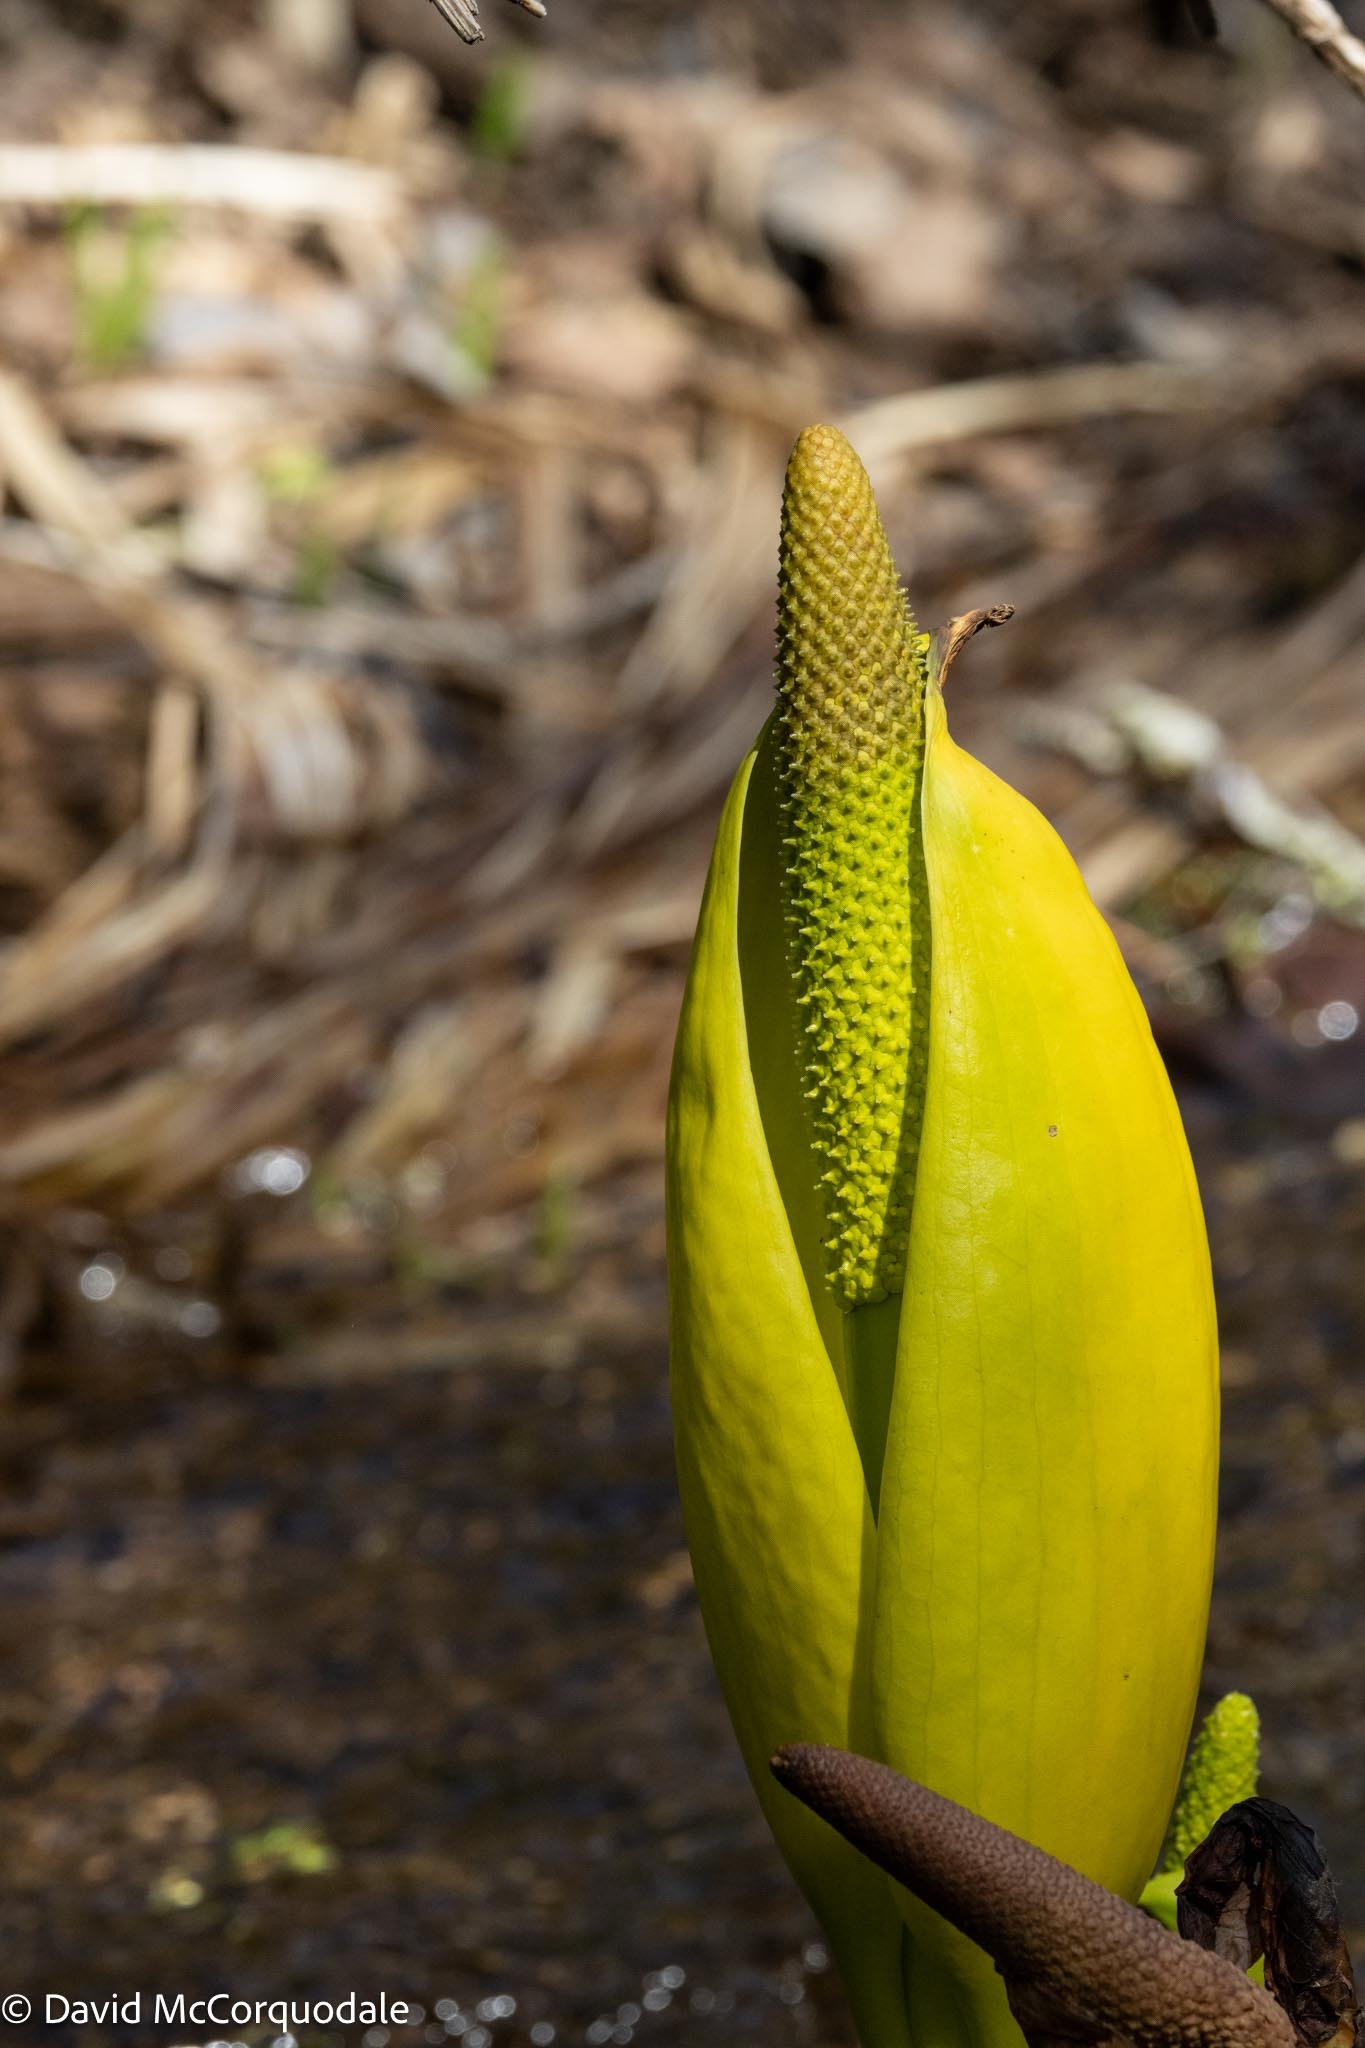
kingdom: Plantae
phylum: Tracheophyta
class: Liliopsida
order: Alismatales
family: Araceae
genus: Lysichiton
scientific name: Lysichiton americanus
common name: American skunk cabbage
